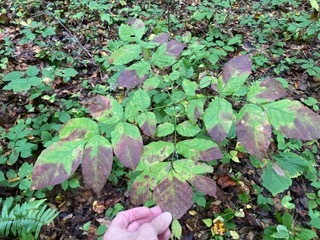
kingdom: Plantae
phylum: Tracheophyta
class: Magnoliopsida
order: Lamiales
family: Oleaceae
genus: Fraxinus
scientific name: Fraxinus americana
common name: White ash
